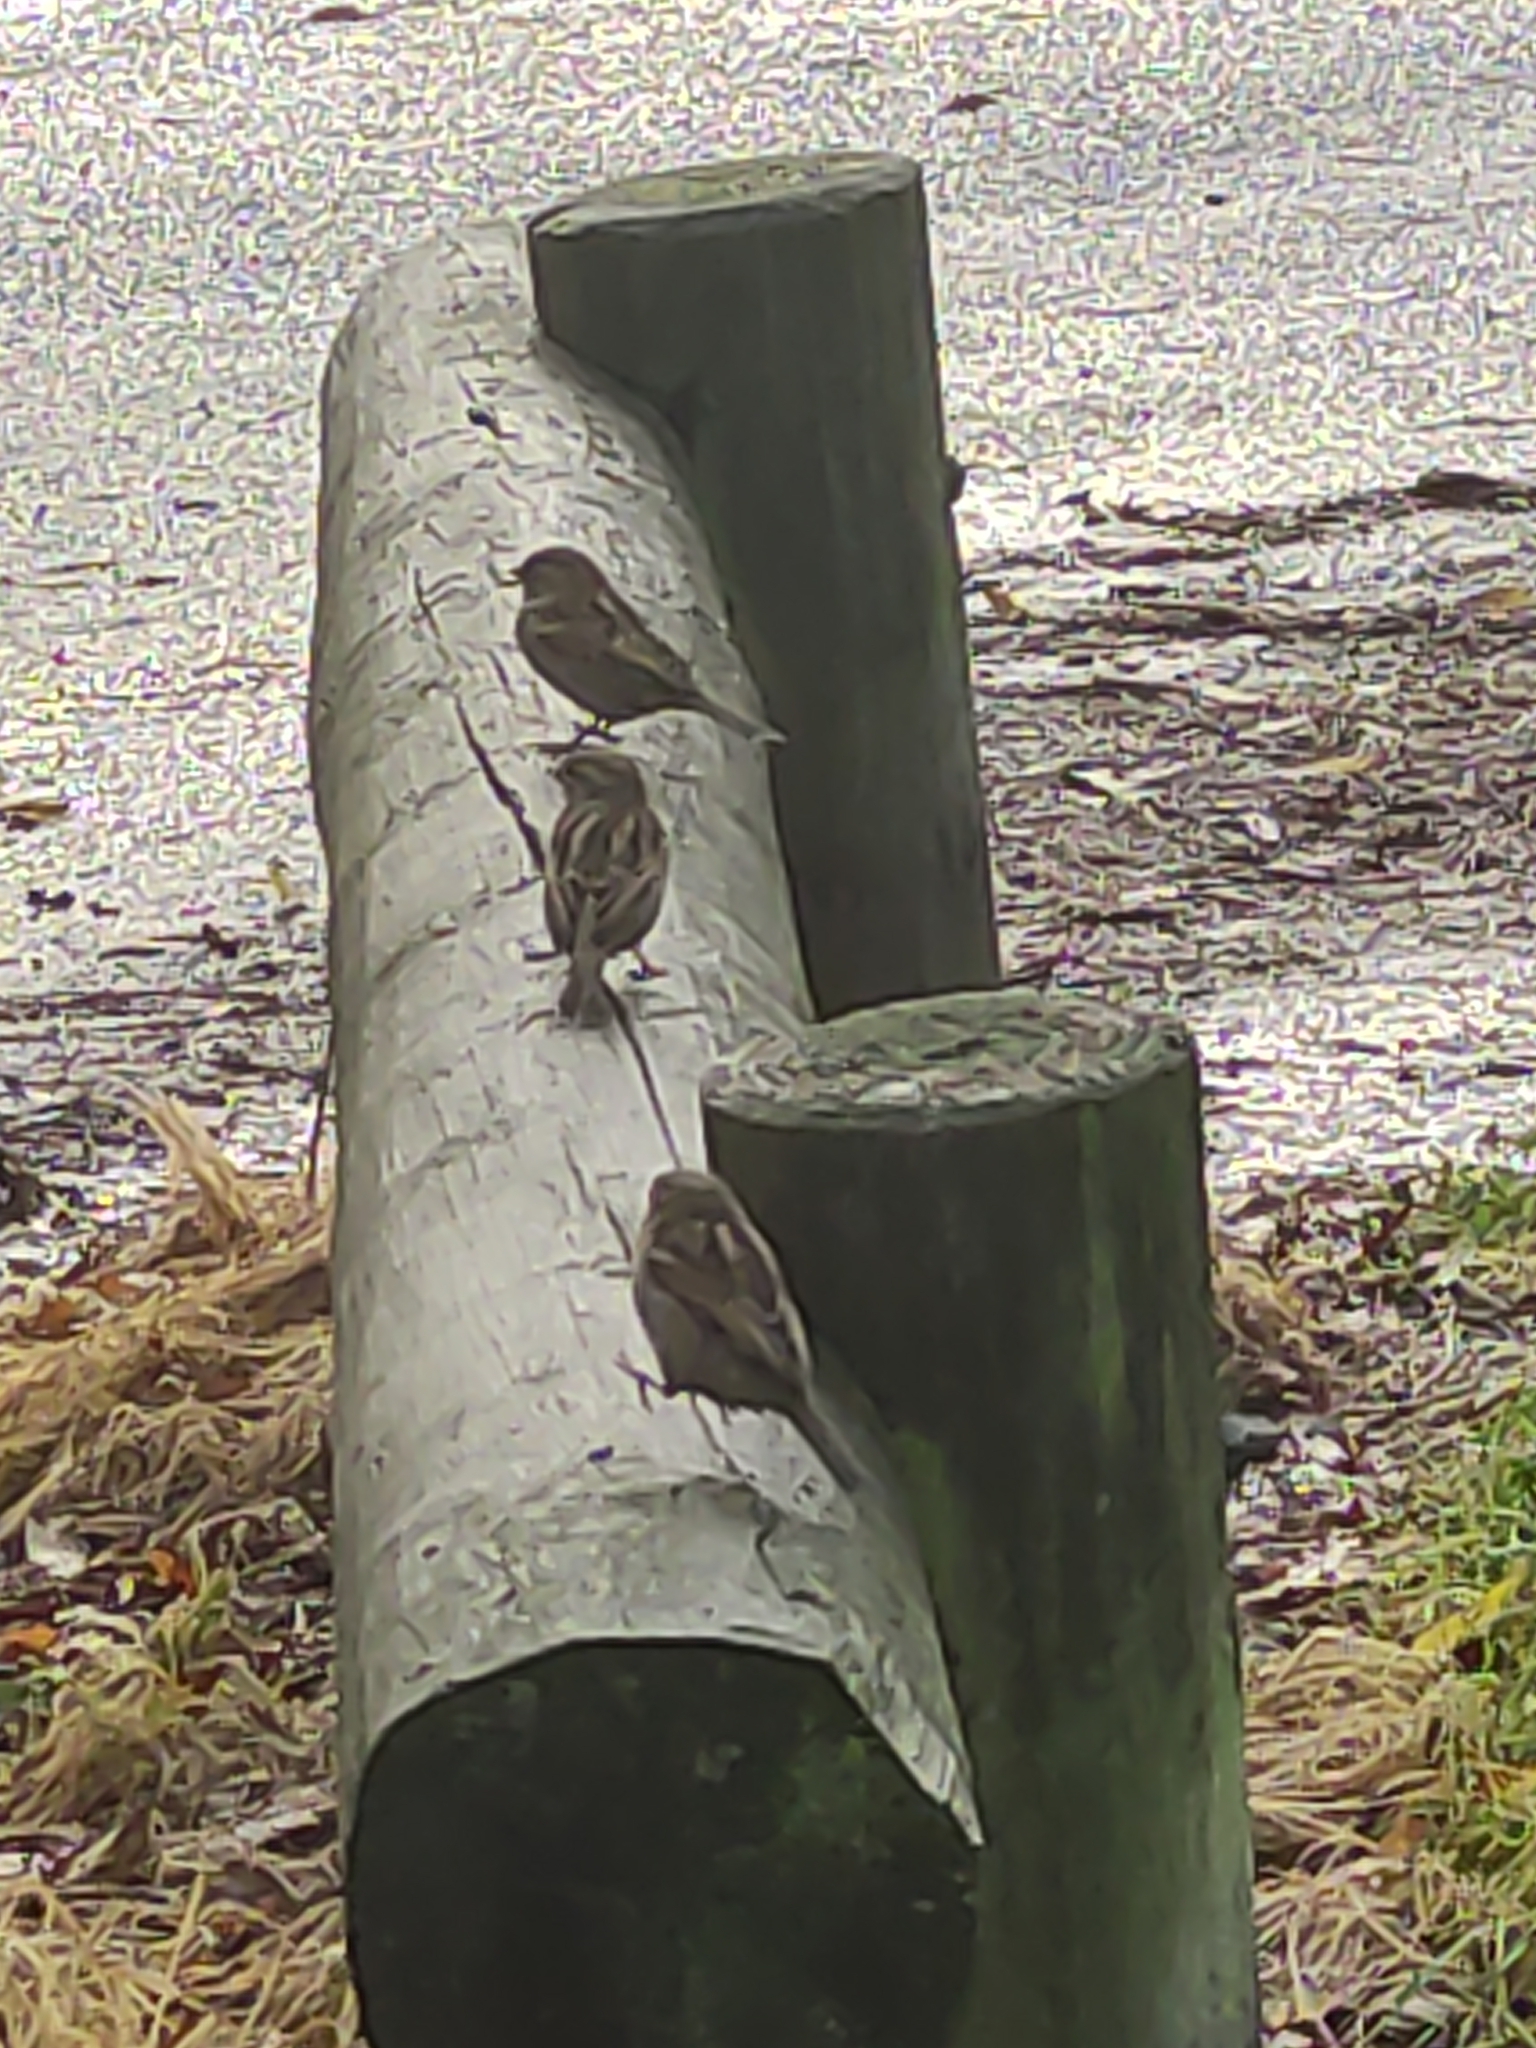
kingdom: Animalia
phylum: Chordata
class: Aves
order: Passeriformes
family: Passeridae
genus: Passer
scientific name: Passer domesticus
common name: House sparrow
